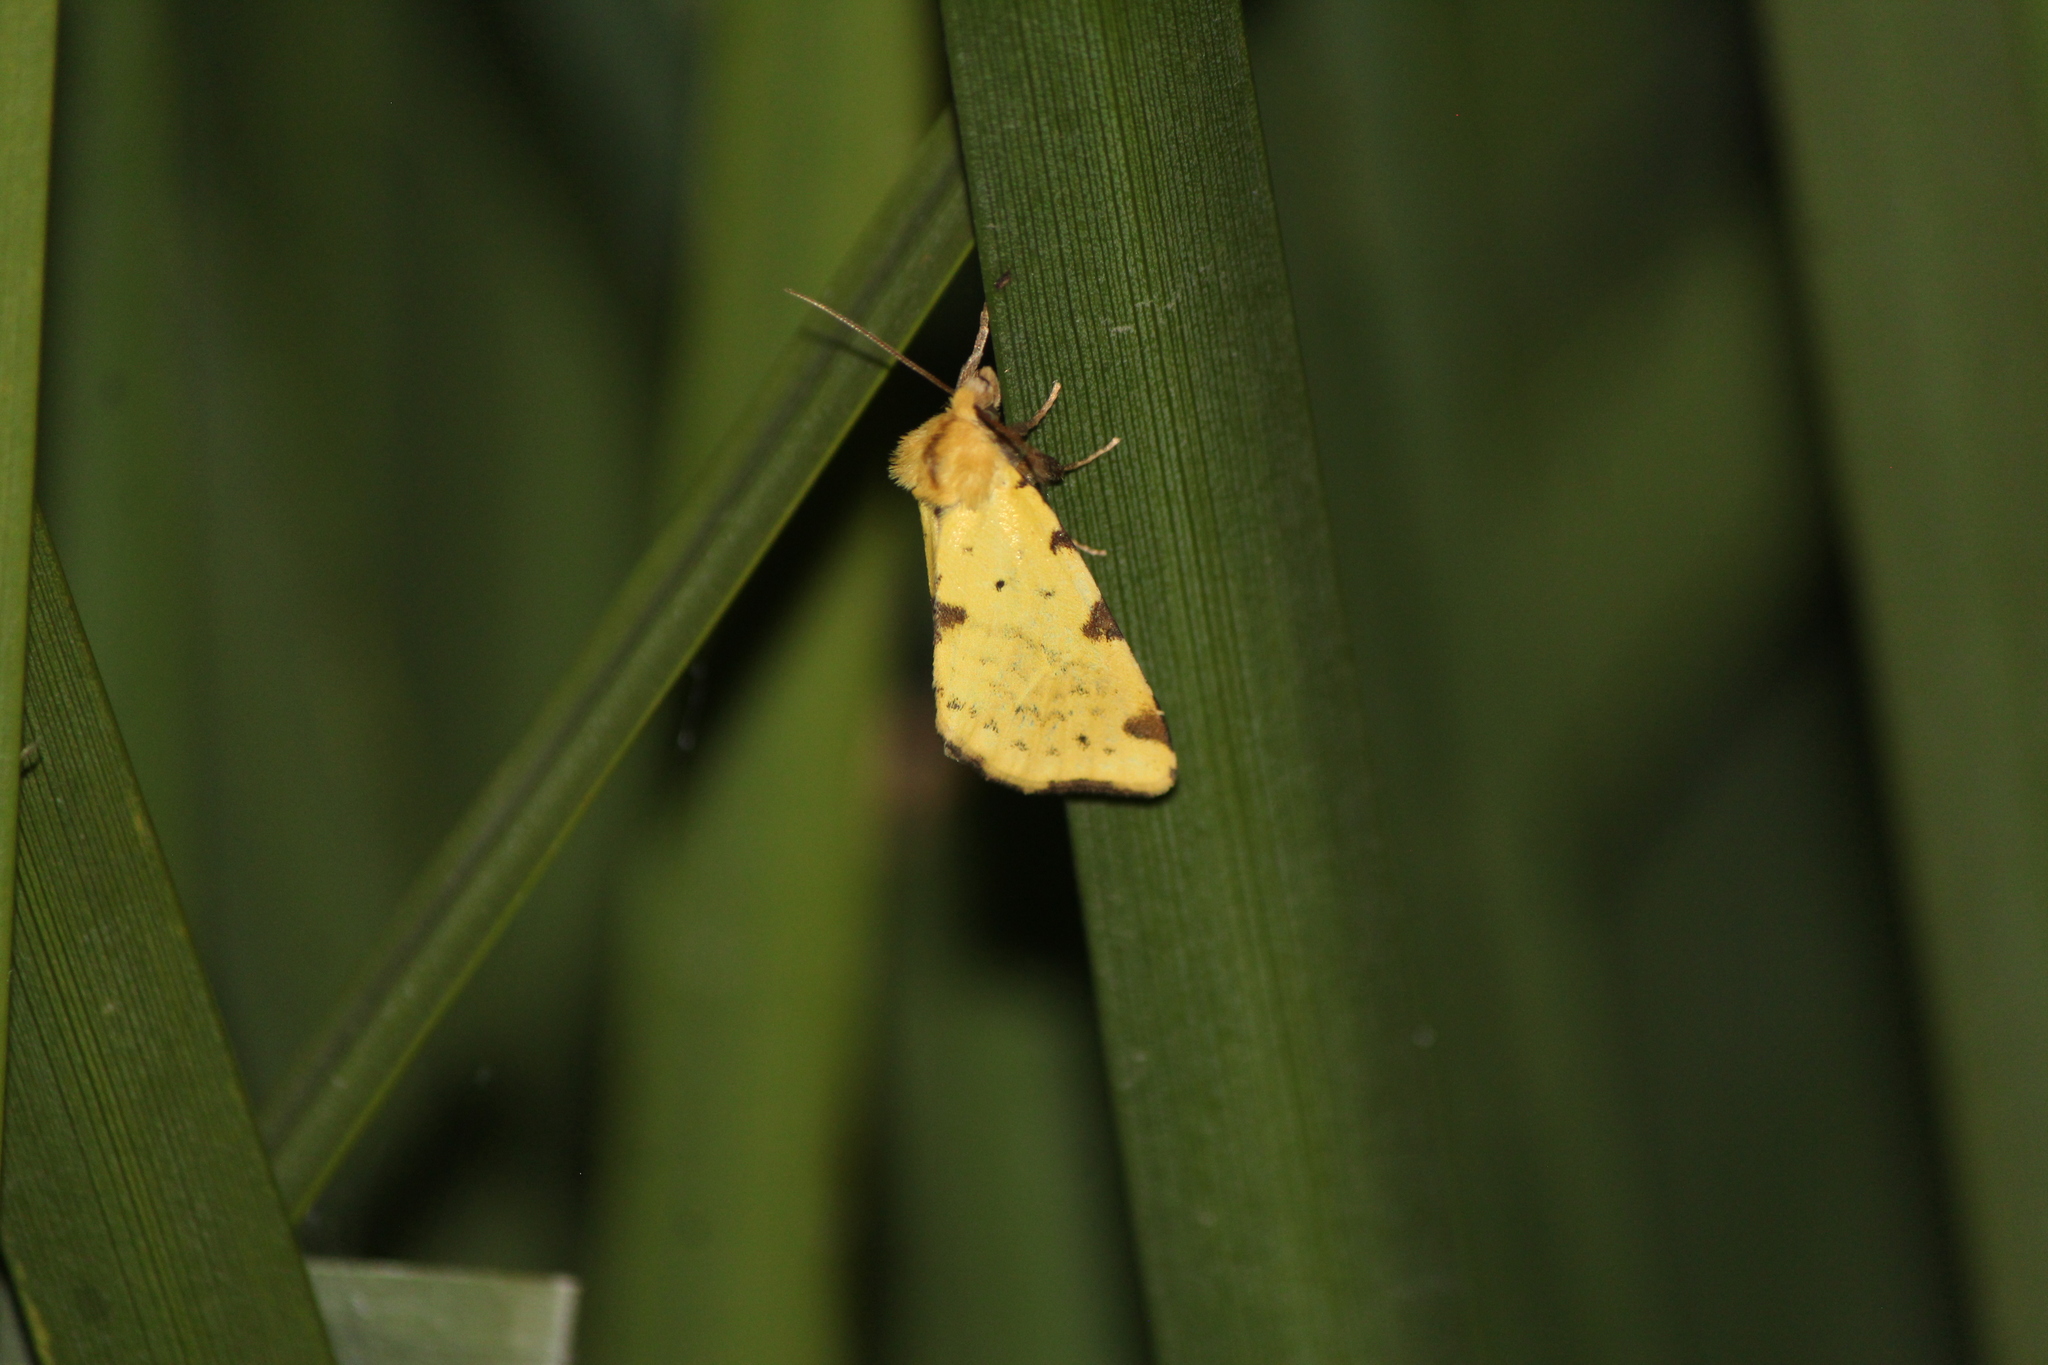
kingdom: Animalia
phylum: Arthropoda
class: Insecta
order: Lepidoptera
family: Noctuidae
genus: Azenia
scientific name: Azenia perflava
